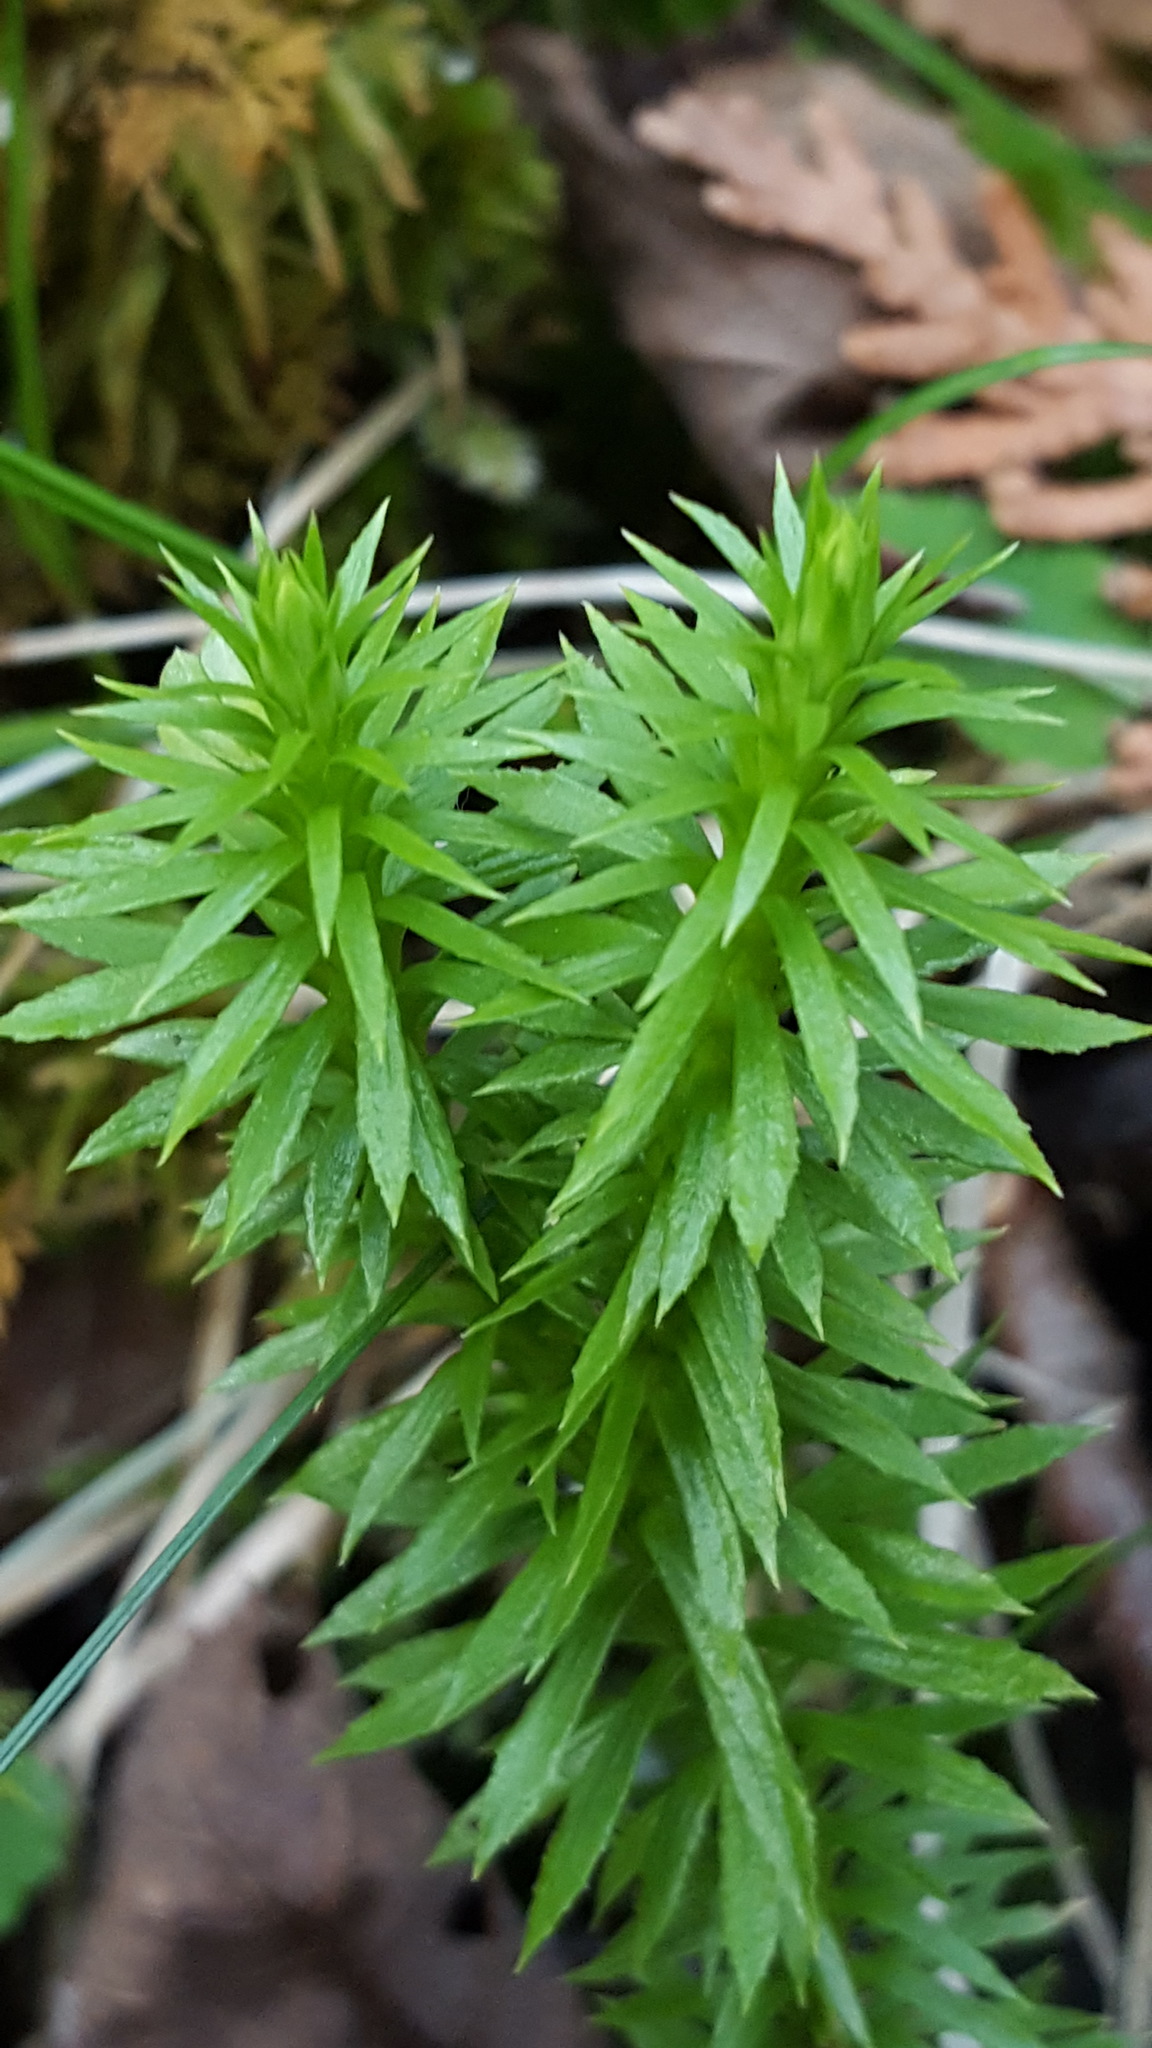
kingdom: Plantae
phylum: Tracheophyta
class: Lycopodiopsida
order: Lycopodiales
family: Lycopodiaceae
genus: Huperzia
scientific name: Huperzia lucidula
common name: Shining clubmoss
